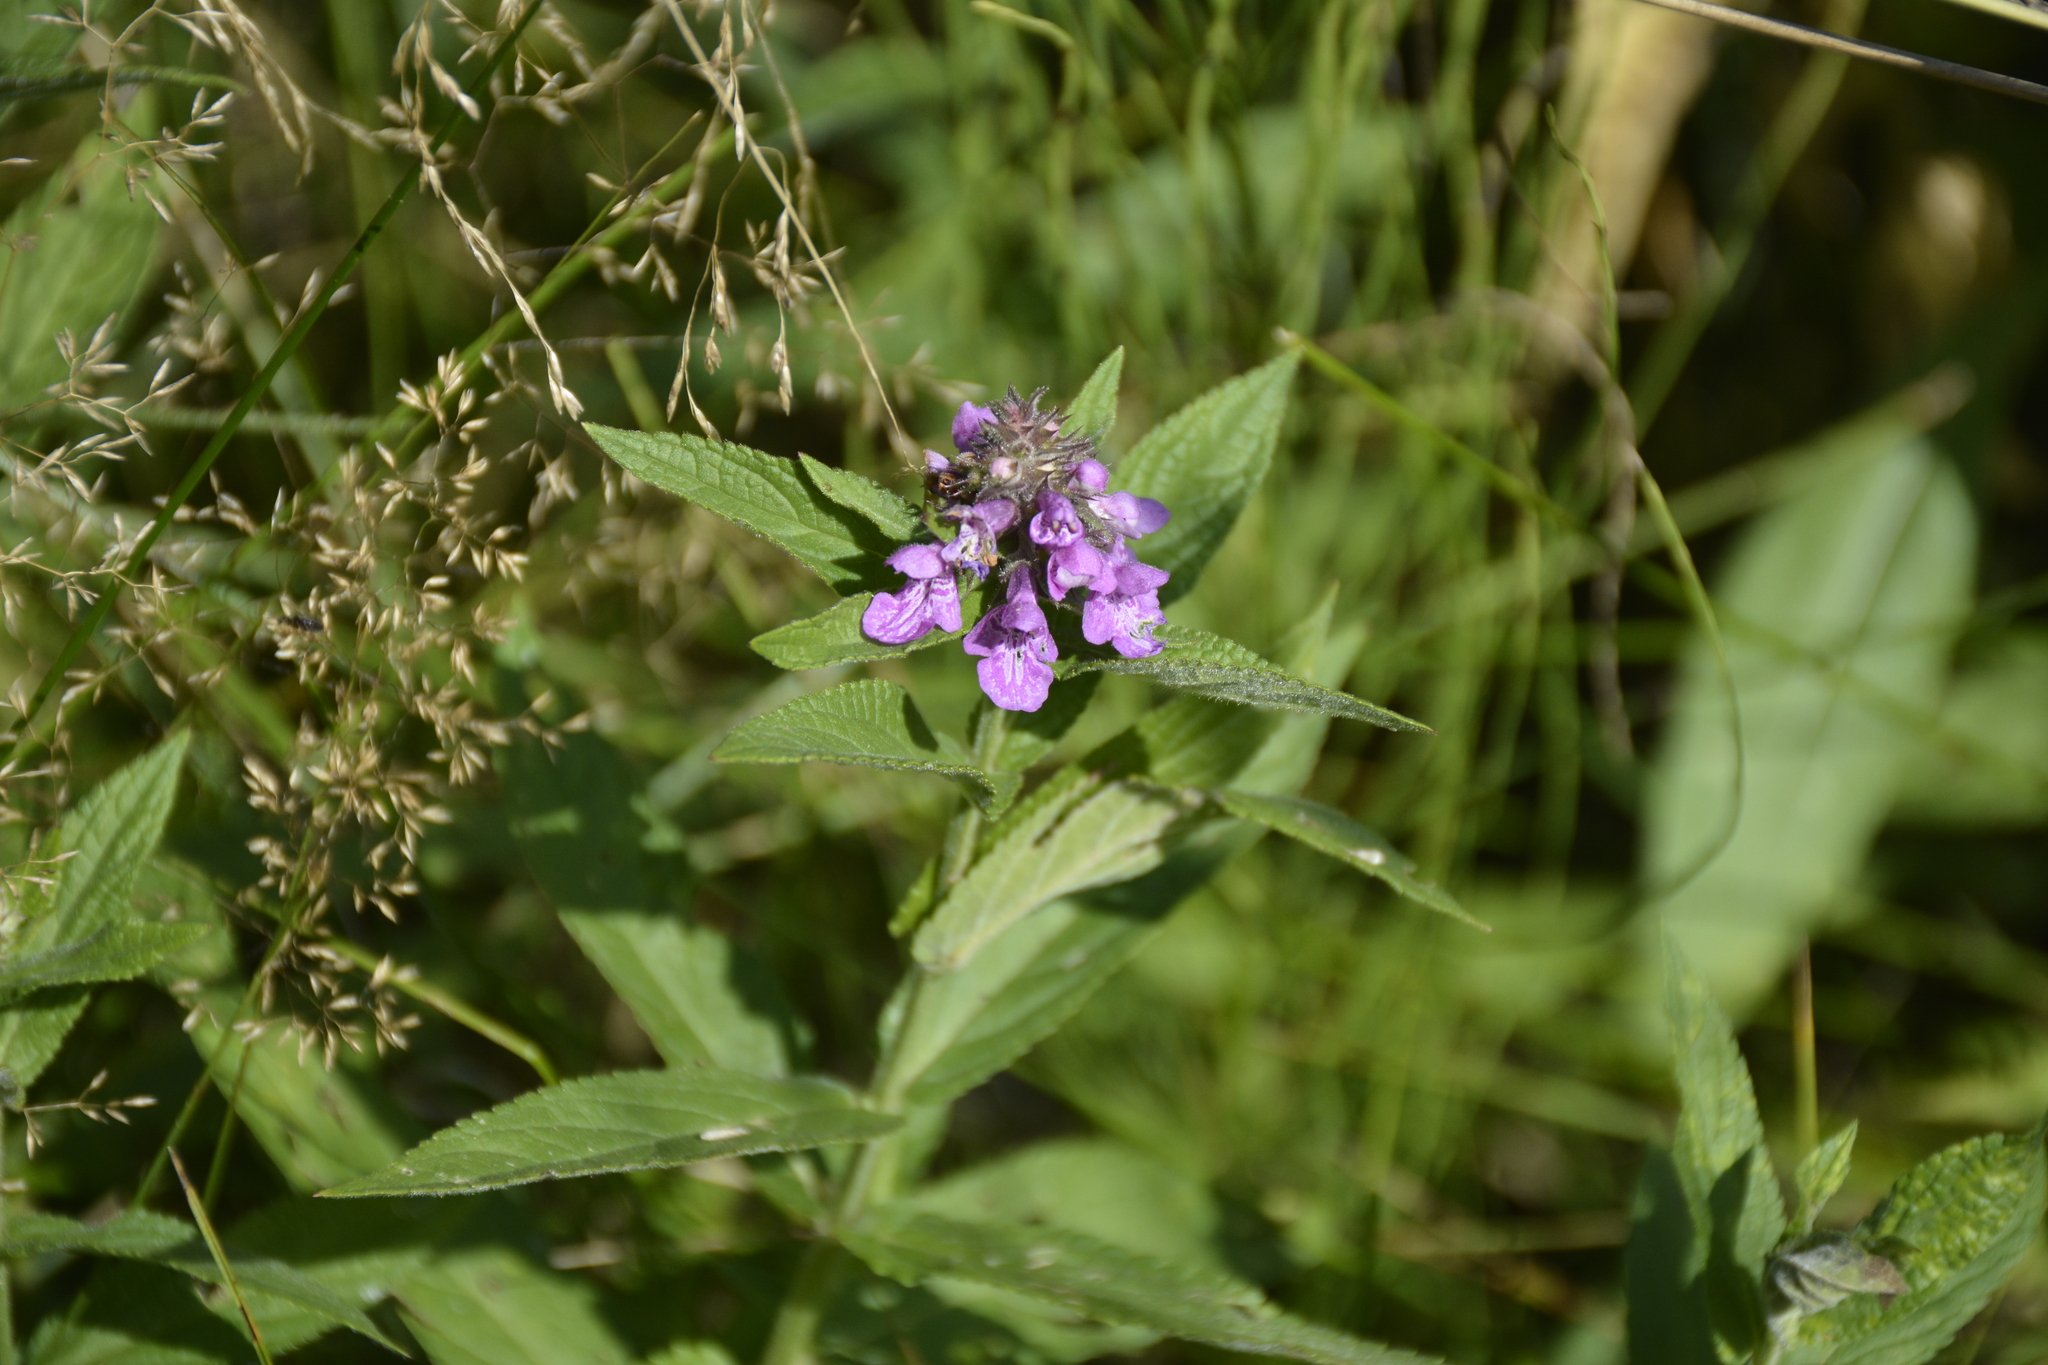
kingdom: Plantae
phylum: Tracheophyta
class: Magnoliopsida
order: Lamiales
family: Lamiaceae
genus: Stachys
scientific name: Stachys palustris
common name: Marsh woundwort
